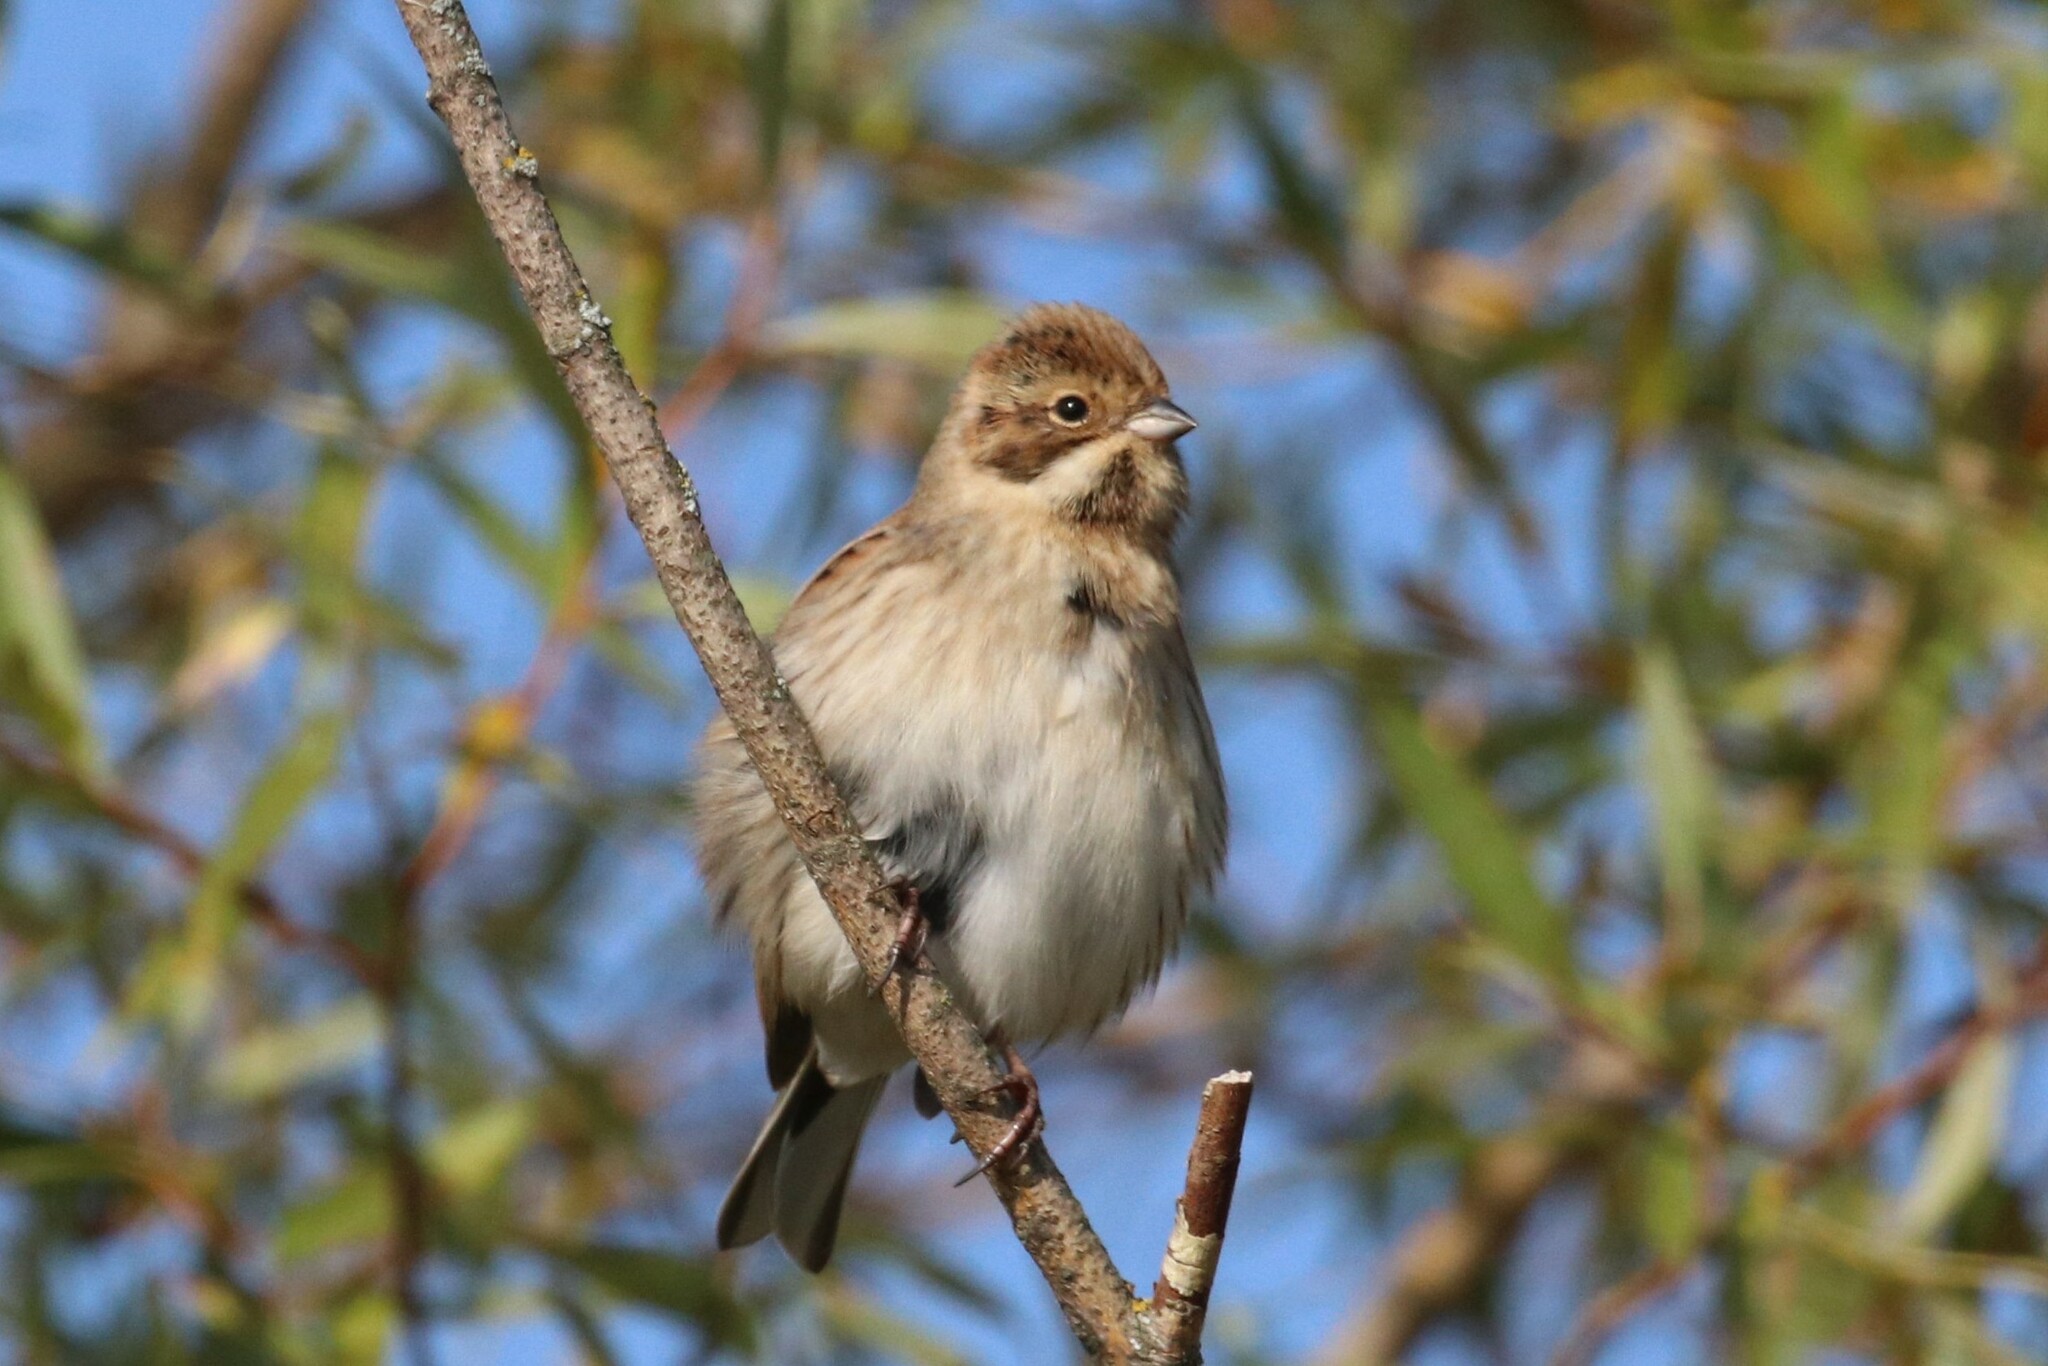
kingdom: Animalia
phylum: Chordata
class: Aves
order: Passeriformes
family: Emberizidae
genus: Emberiza
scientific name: Emberiza schoeniclus
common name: Reed bunting
